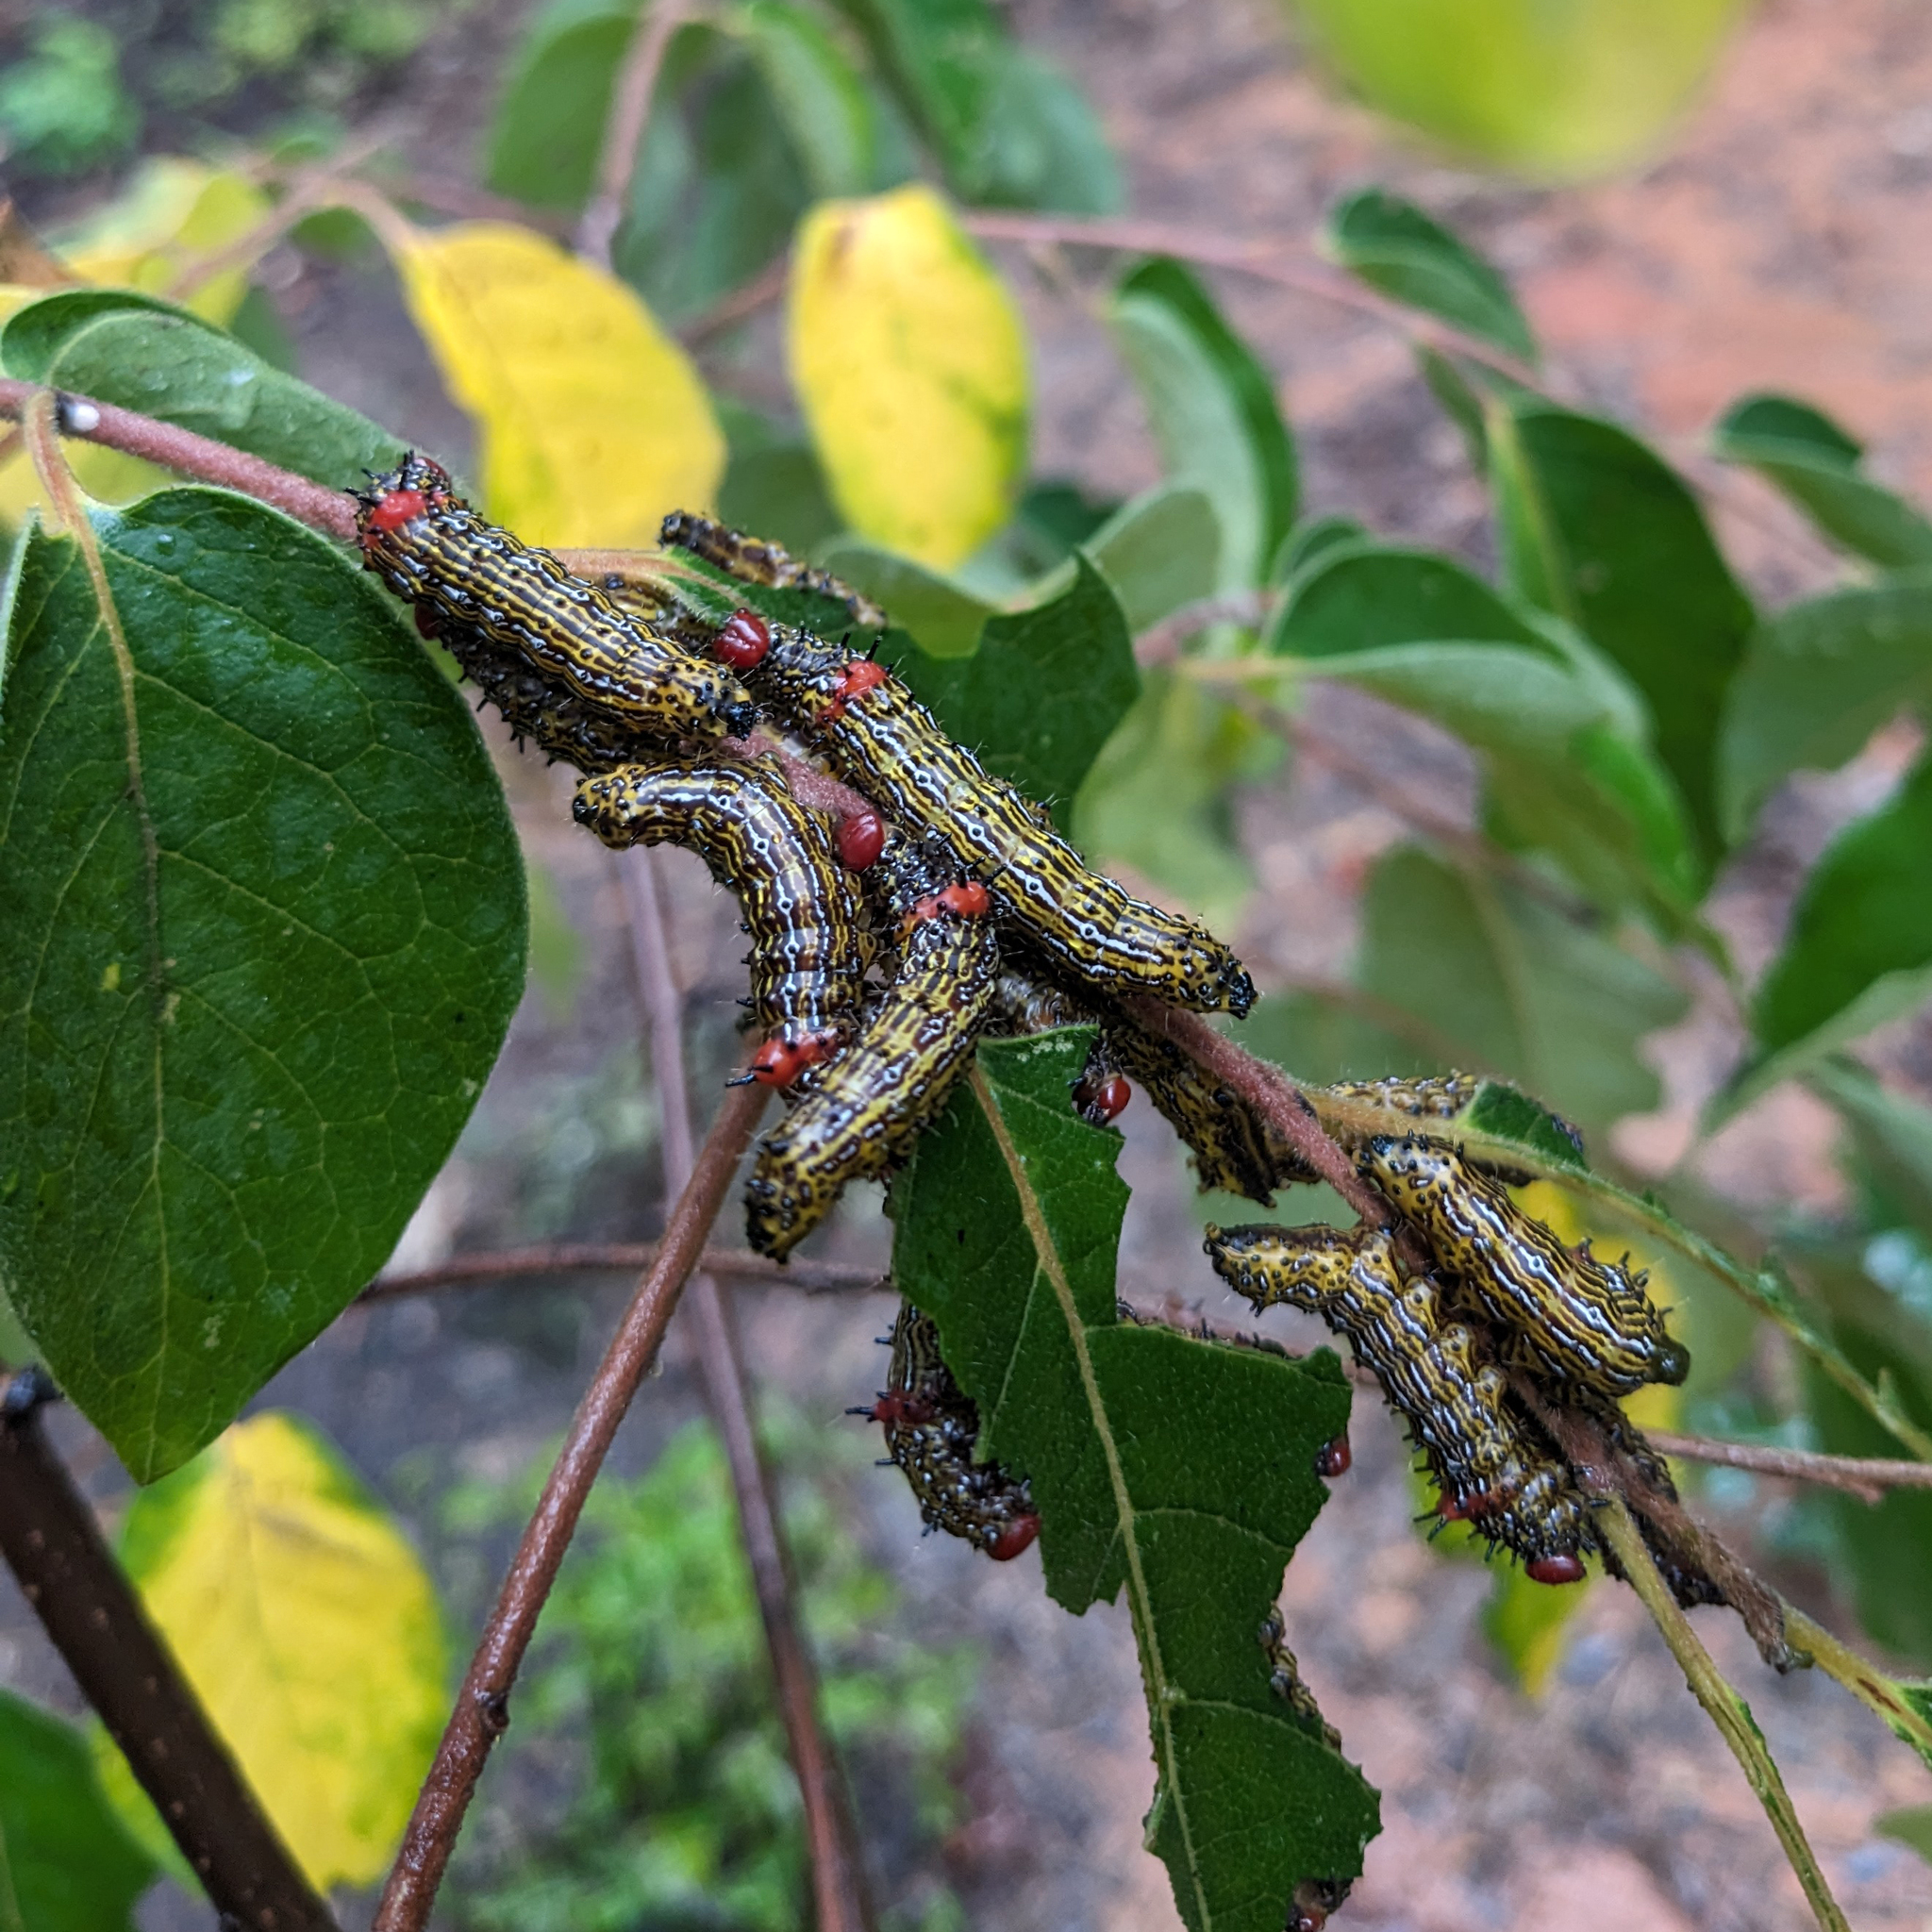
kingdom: Animalia
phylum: Arthropoda
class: Insecta
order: Lepidoptera
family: Notodontidae
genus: Schizura
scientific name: Schizura
